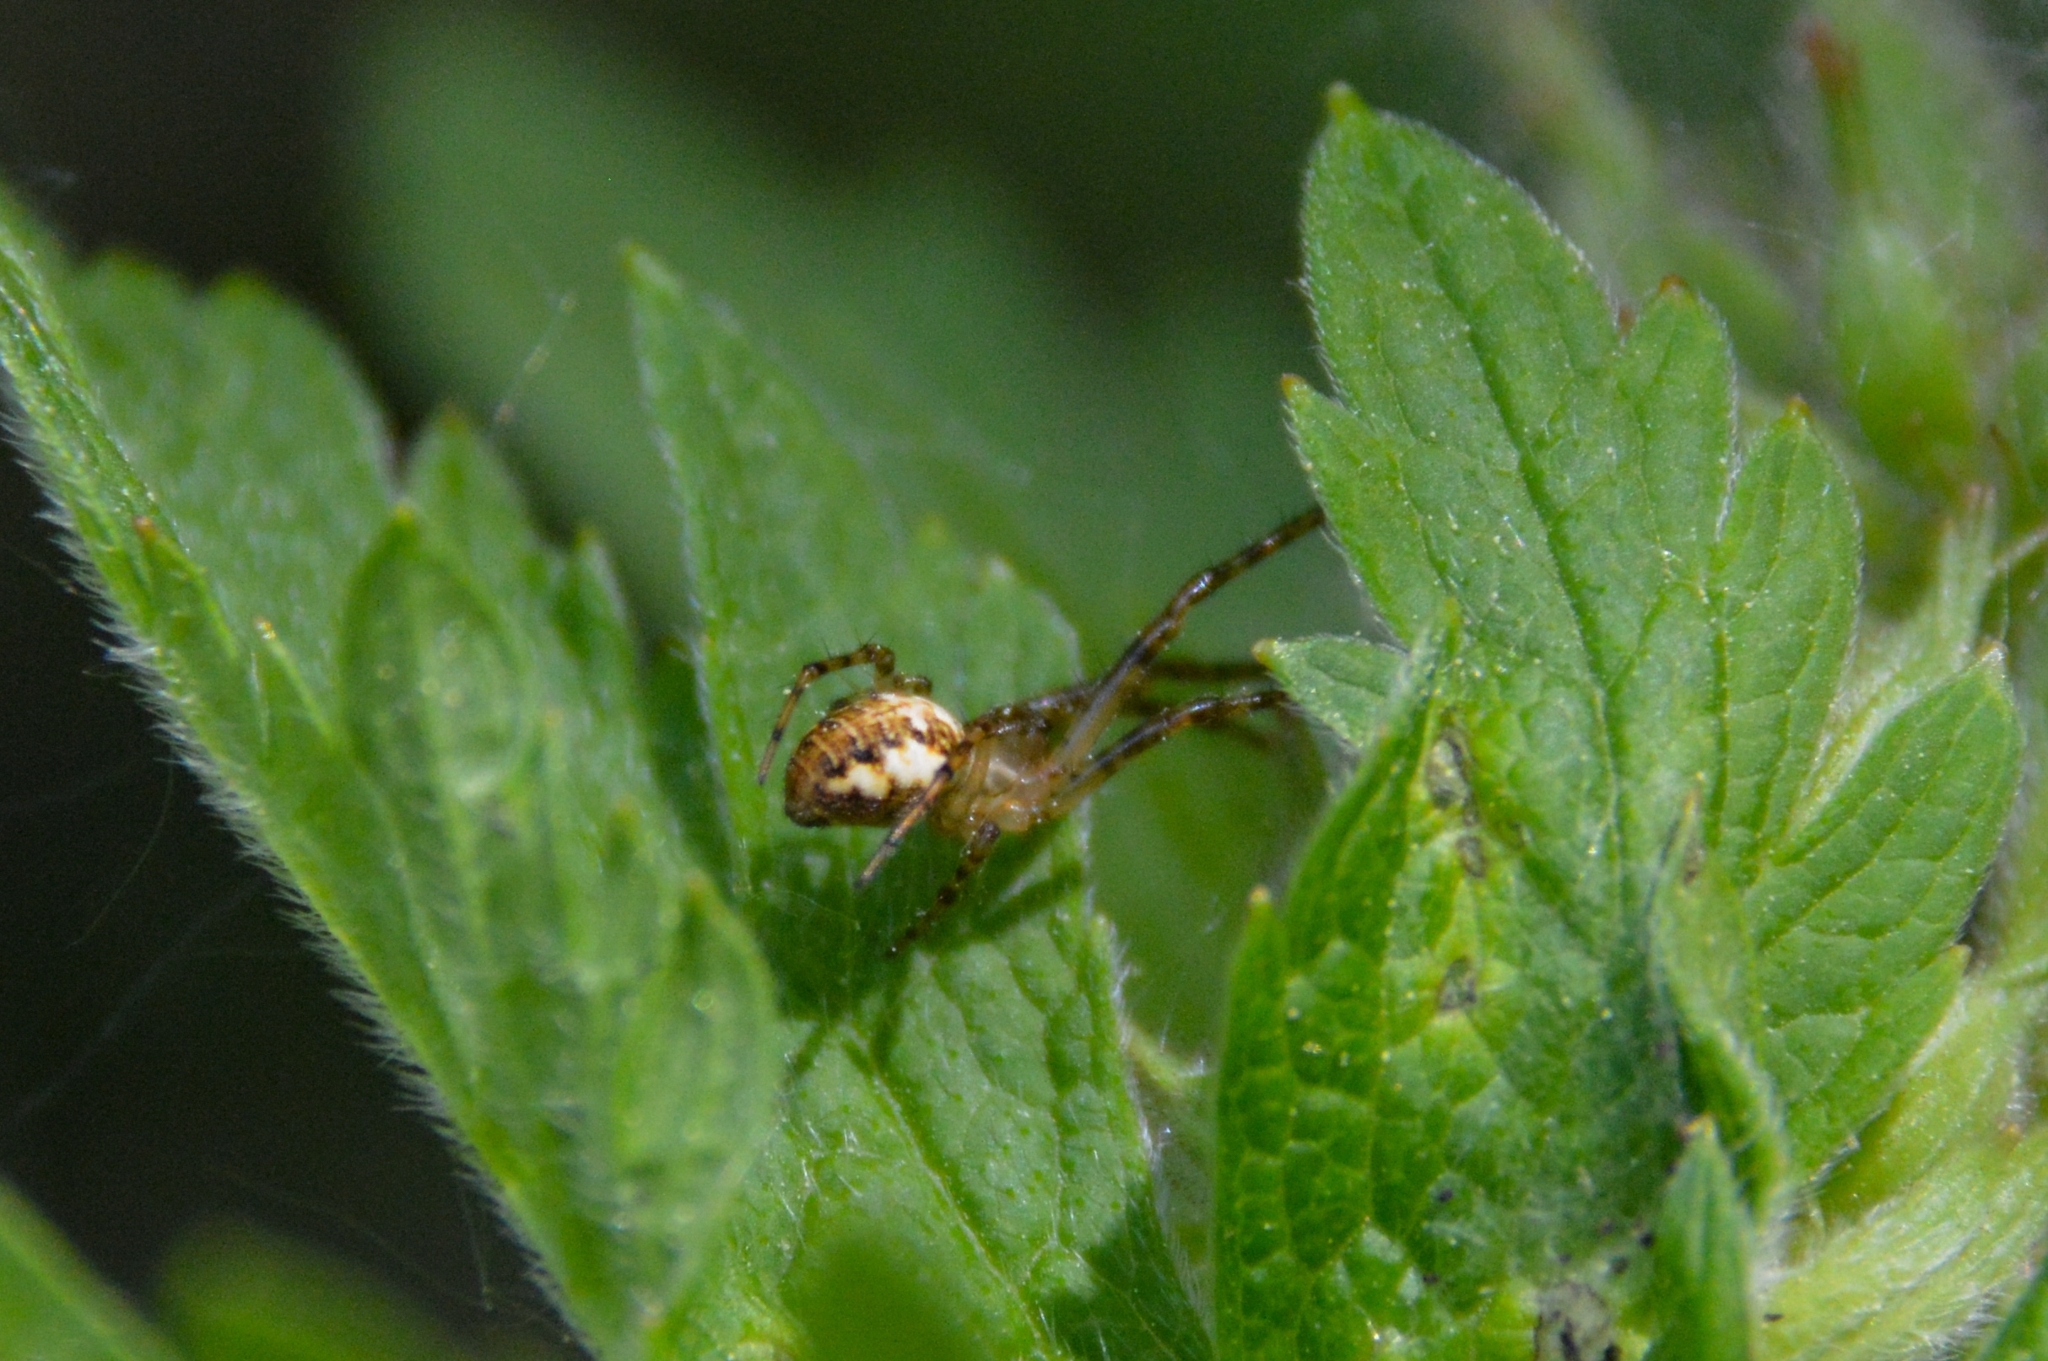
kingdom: Animalia
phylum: Arthropoda
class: Arachnida
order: Araneae
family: Tetragnathidae
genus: Metellina
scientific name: Metellina
